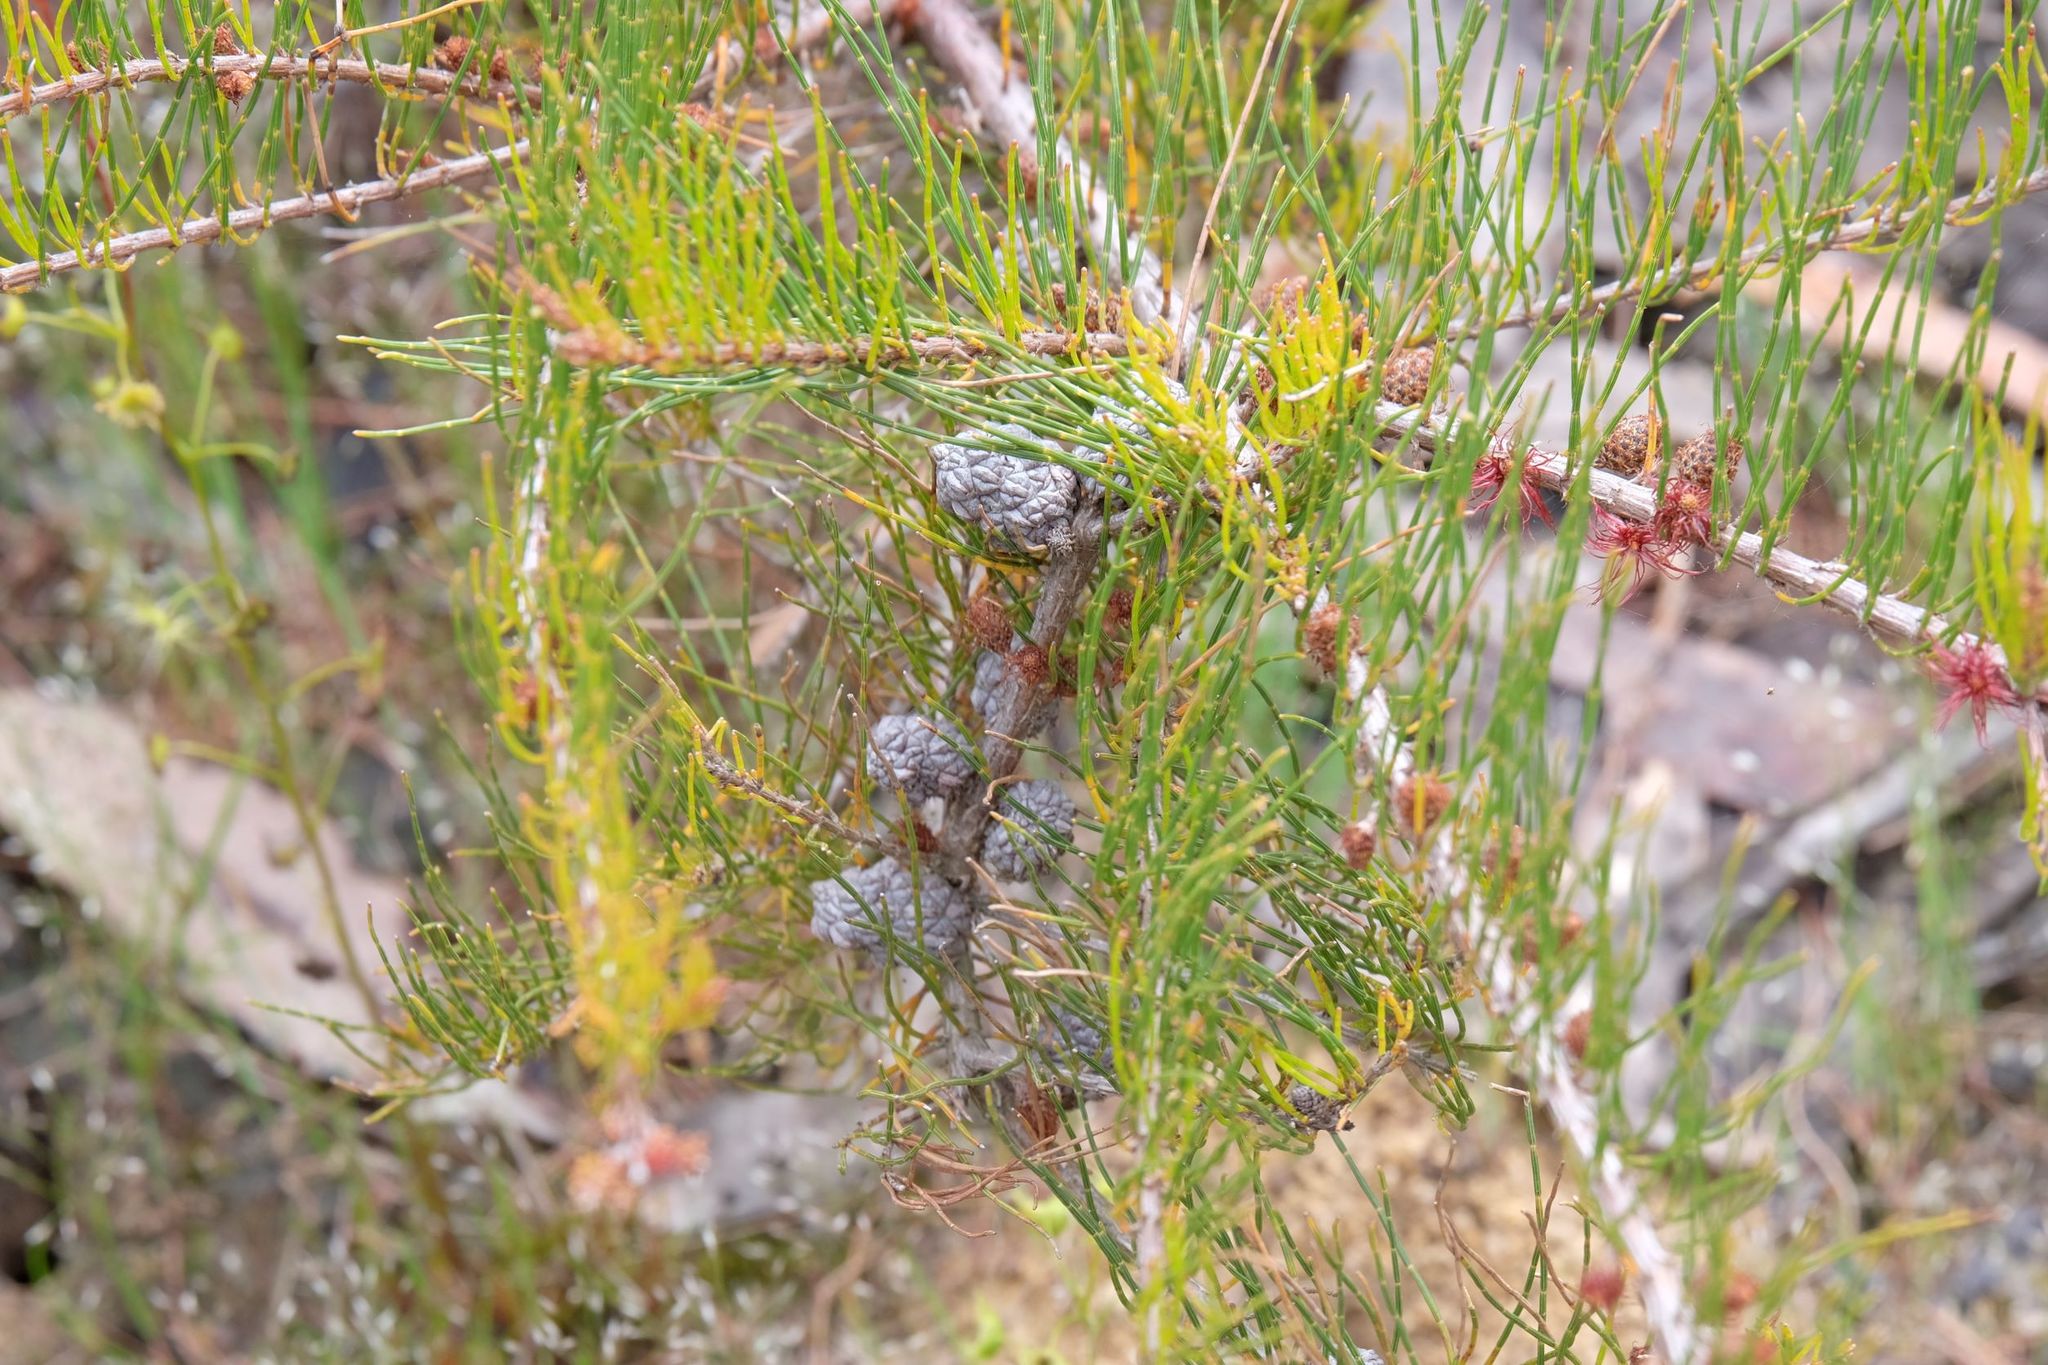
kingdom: Plantae
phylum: Tracheophyta
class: Magnoliopsida
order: Fagales
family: Casuarinaceae
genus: Allocasuarina
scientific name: Allocasuarina misera
